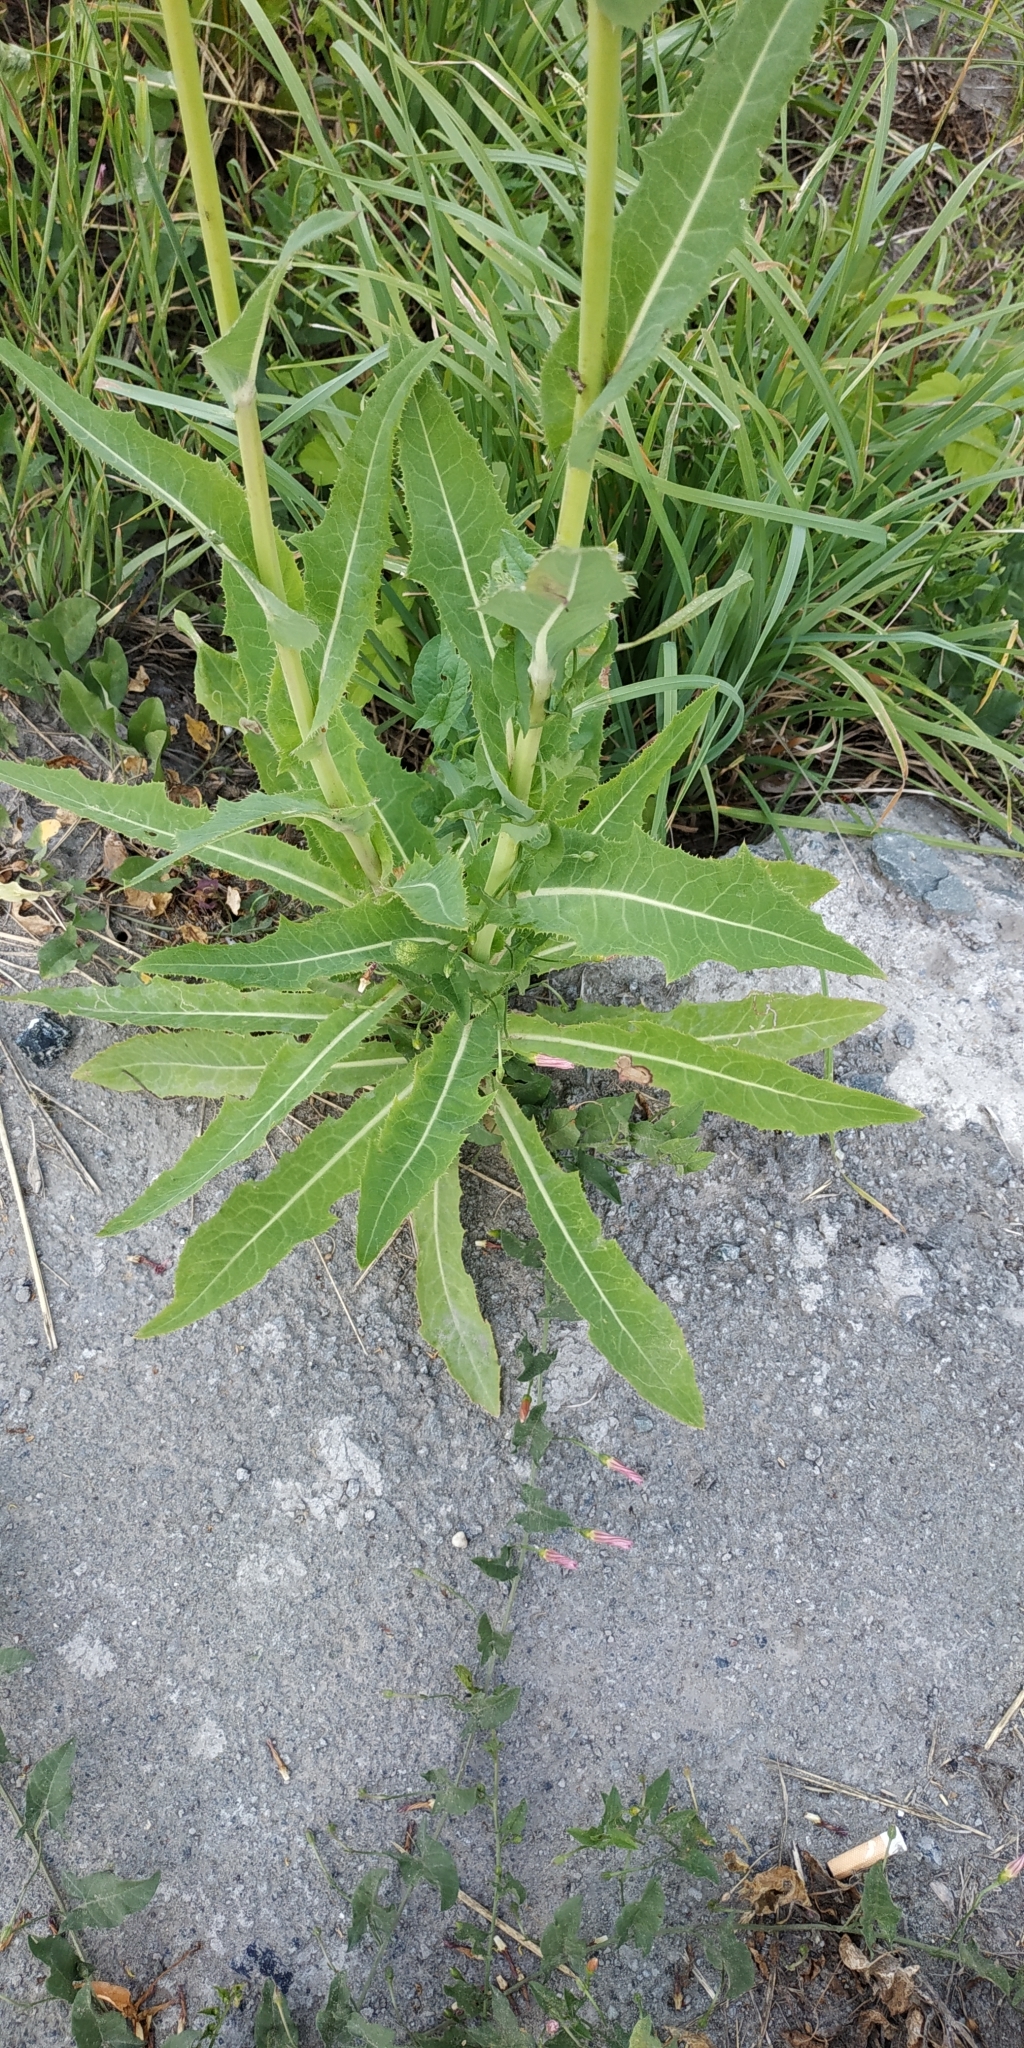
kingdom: Plantae
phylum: Tracheophyta
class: Magnoliopsida
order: Asterales
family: Asteraceae
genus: Sonchus
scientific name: Sonchus arvensis
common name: Perennial sow-thistle
